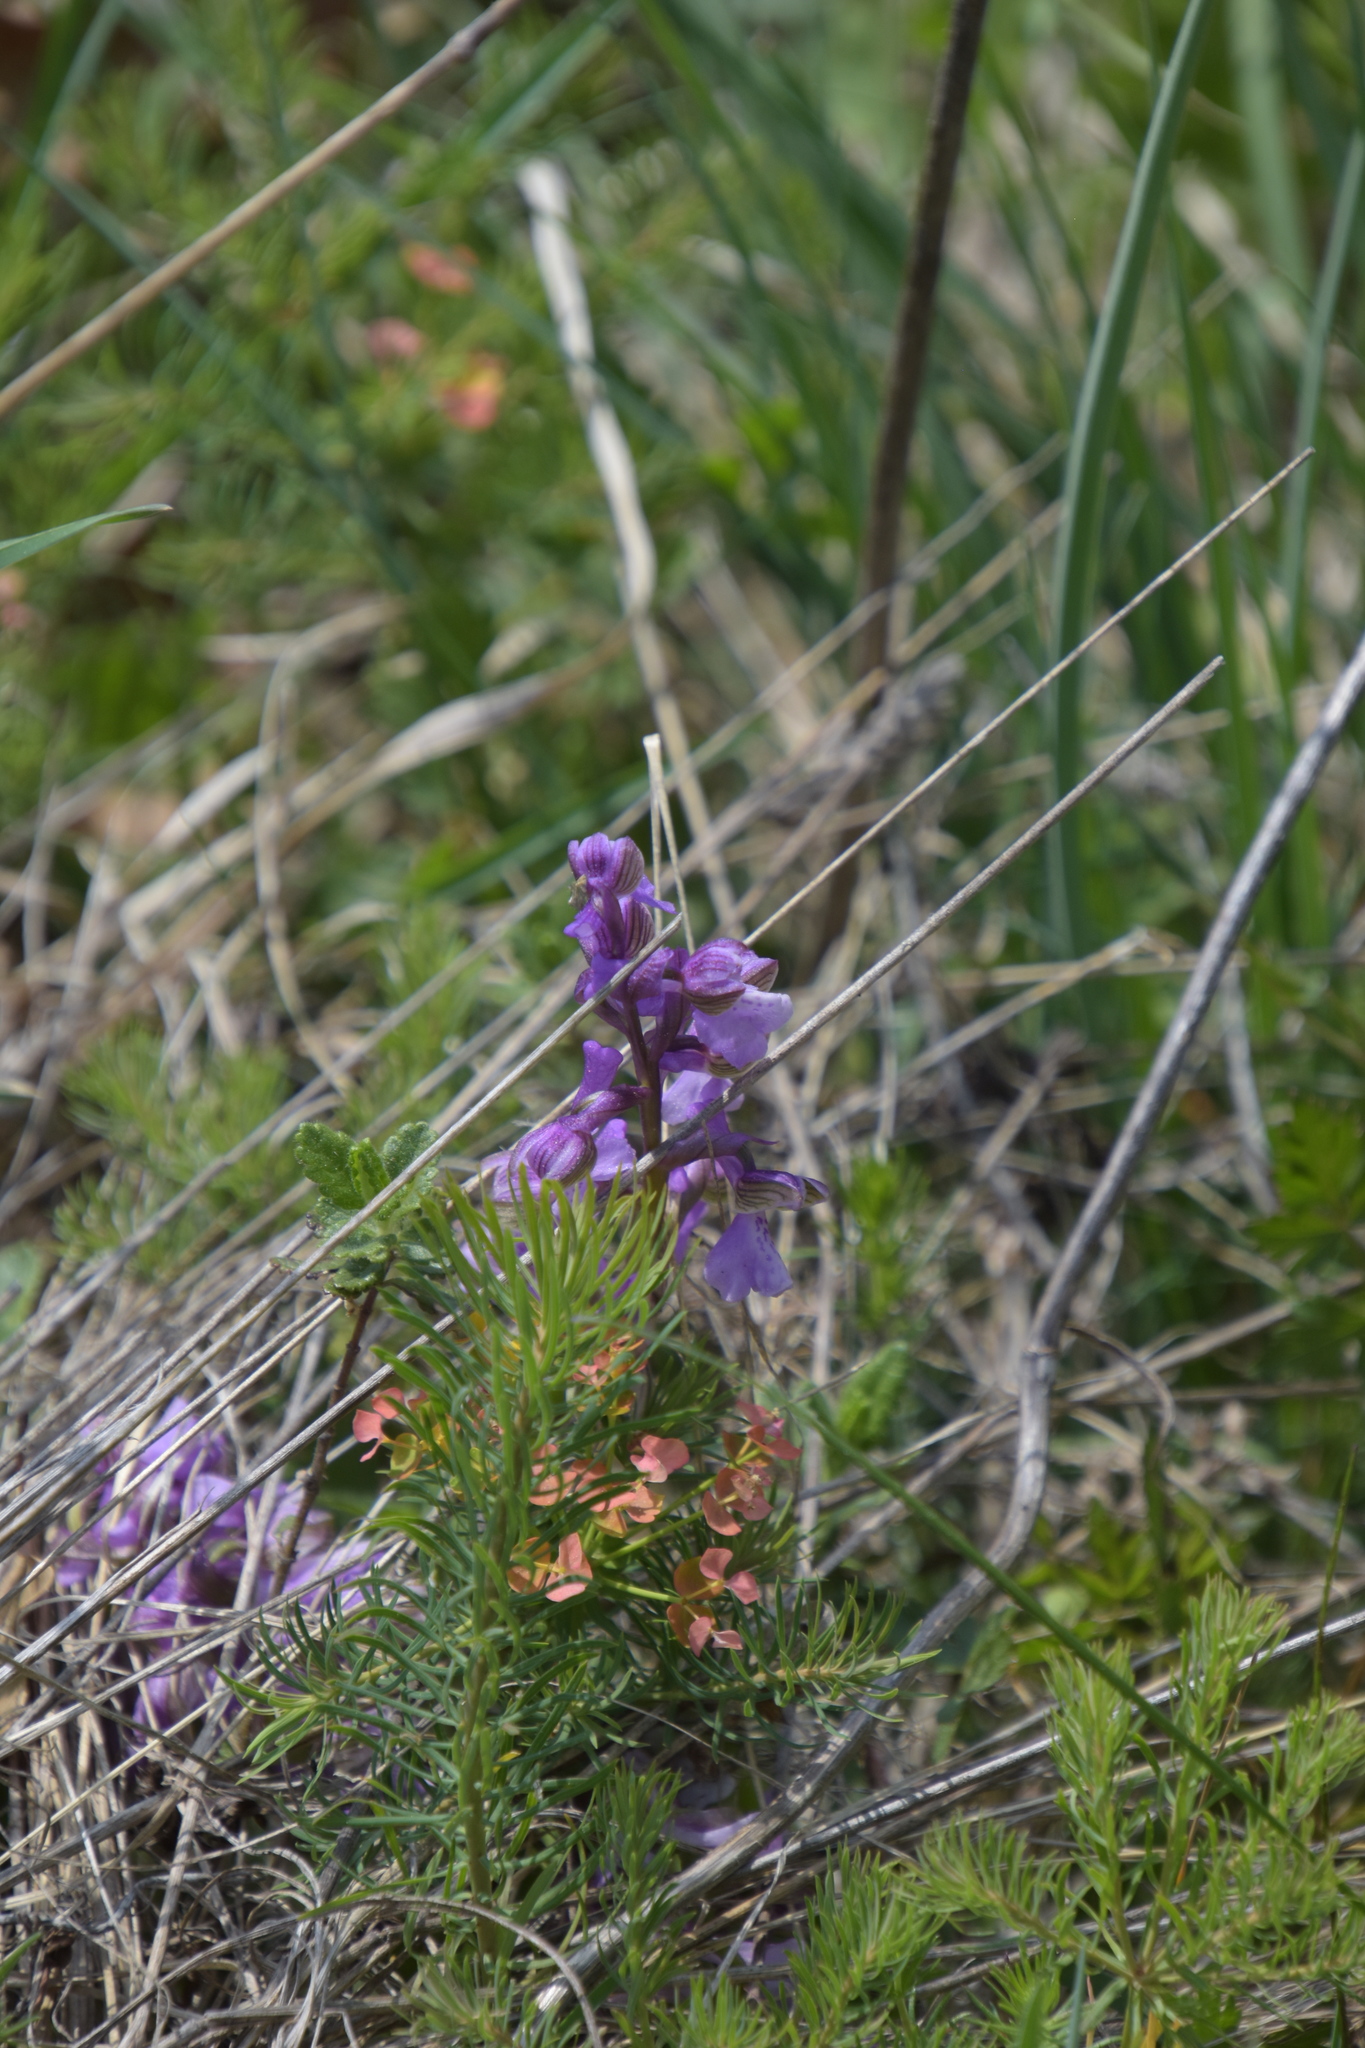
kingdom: Plantae
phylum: Tracheophyta
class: Liliopsida
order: Asparagales
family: Orchidaceae
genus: Anacamptis
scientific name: Anacamptis morio
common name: Green-winged orchid
